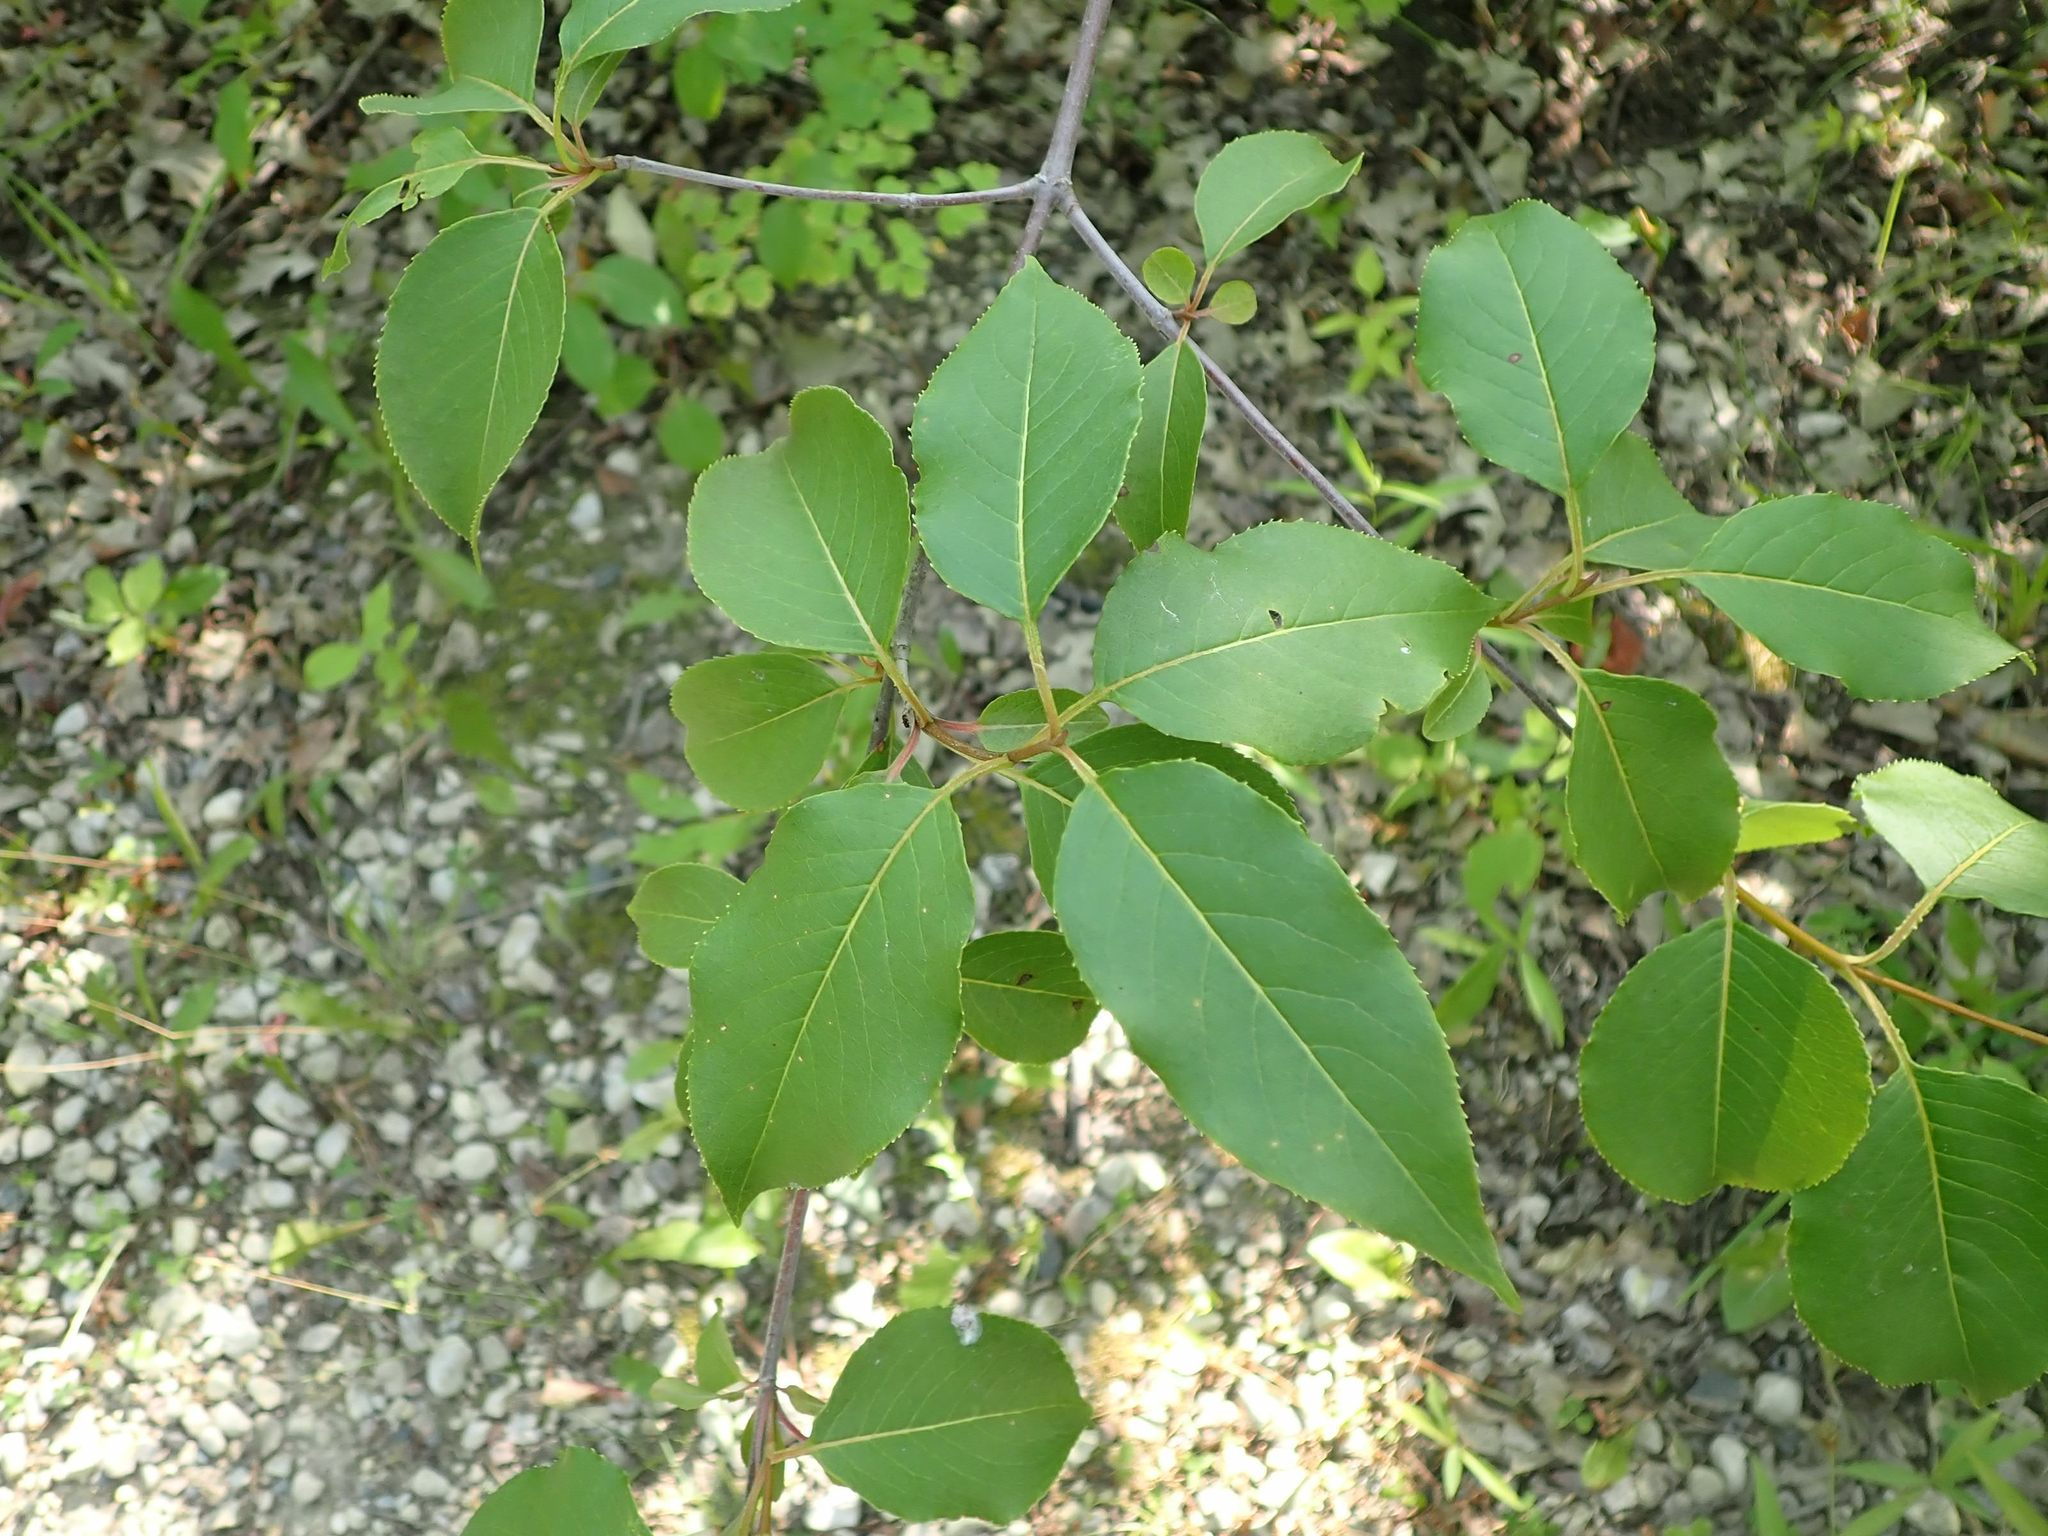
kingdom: Plantae
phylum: Tracheophyta
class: Magnoliopsida
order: Dipsacales
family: Viburnaceae
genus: Viburnum
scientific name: Viburnum lentago
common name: Black haw
